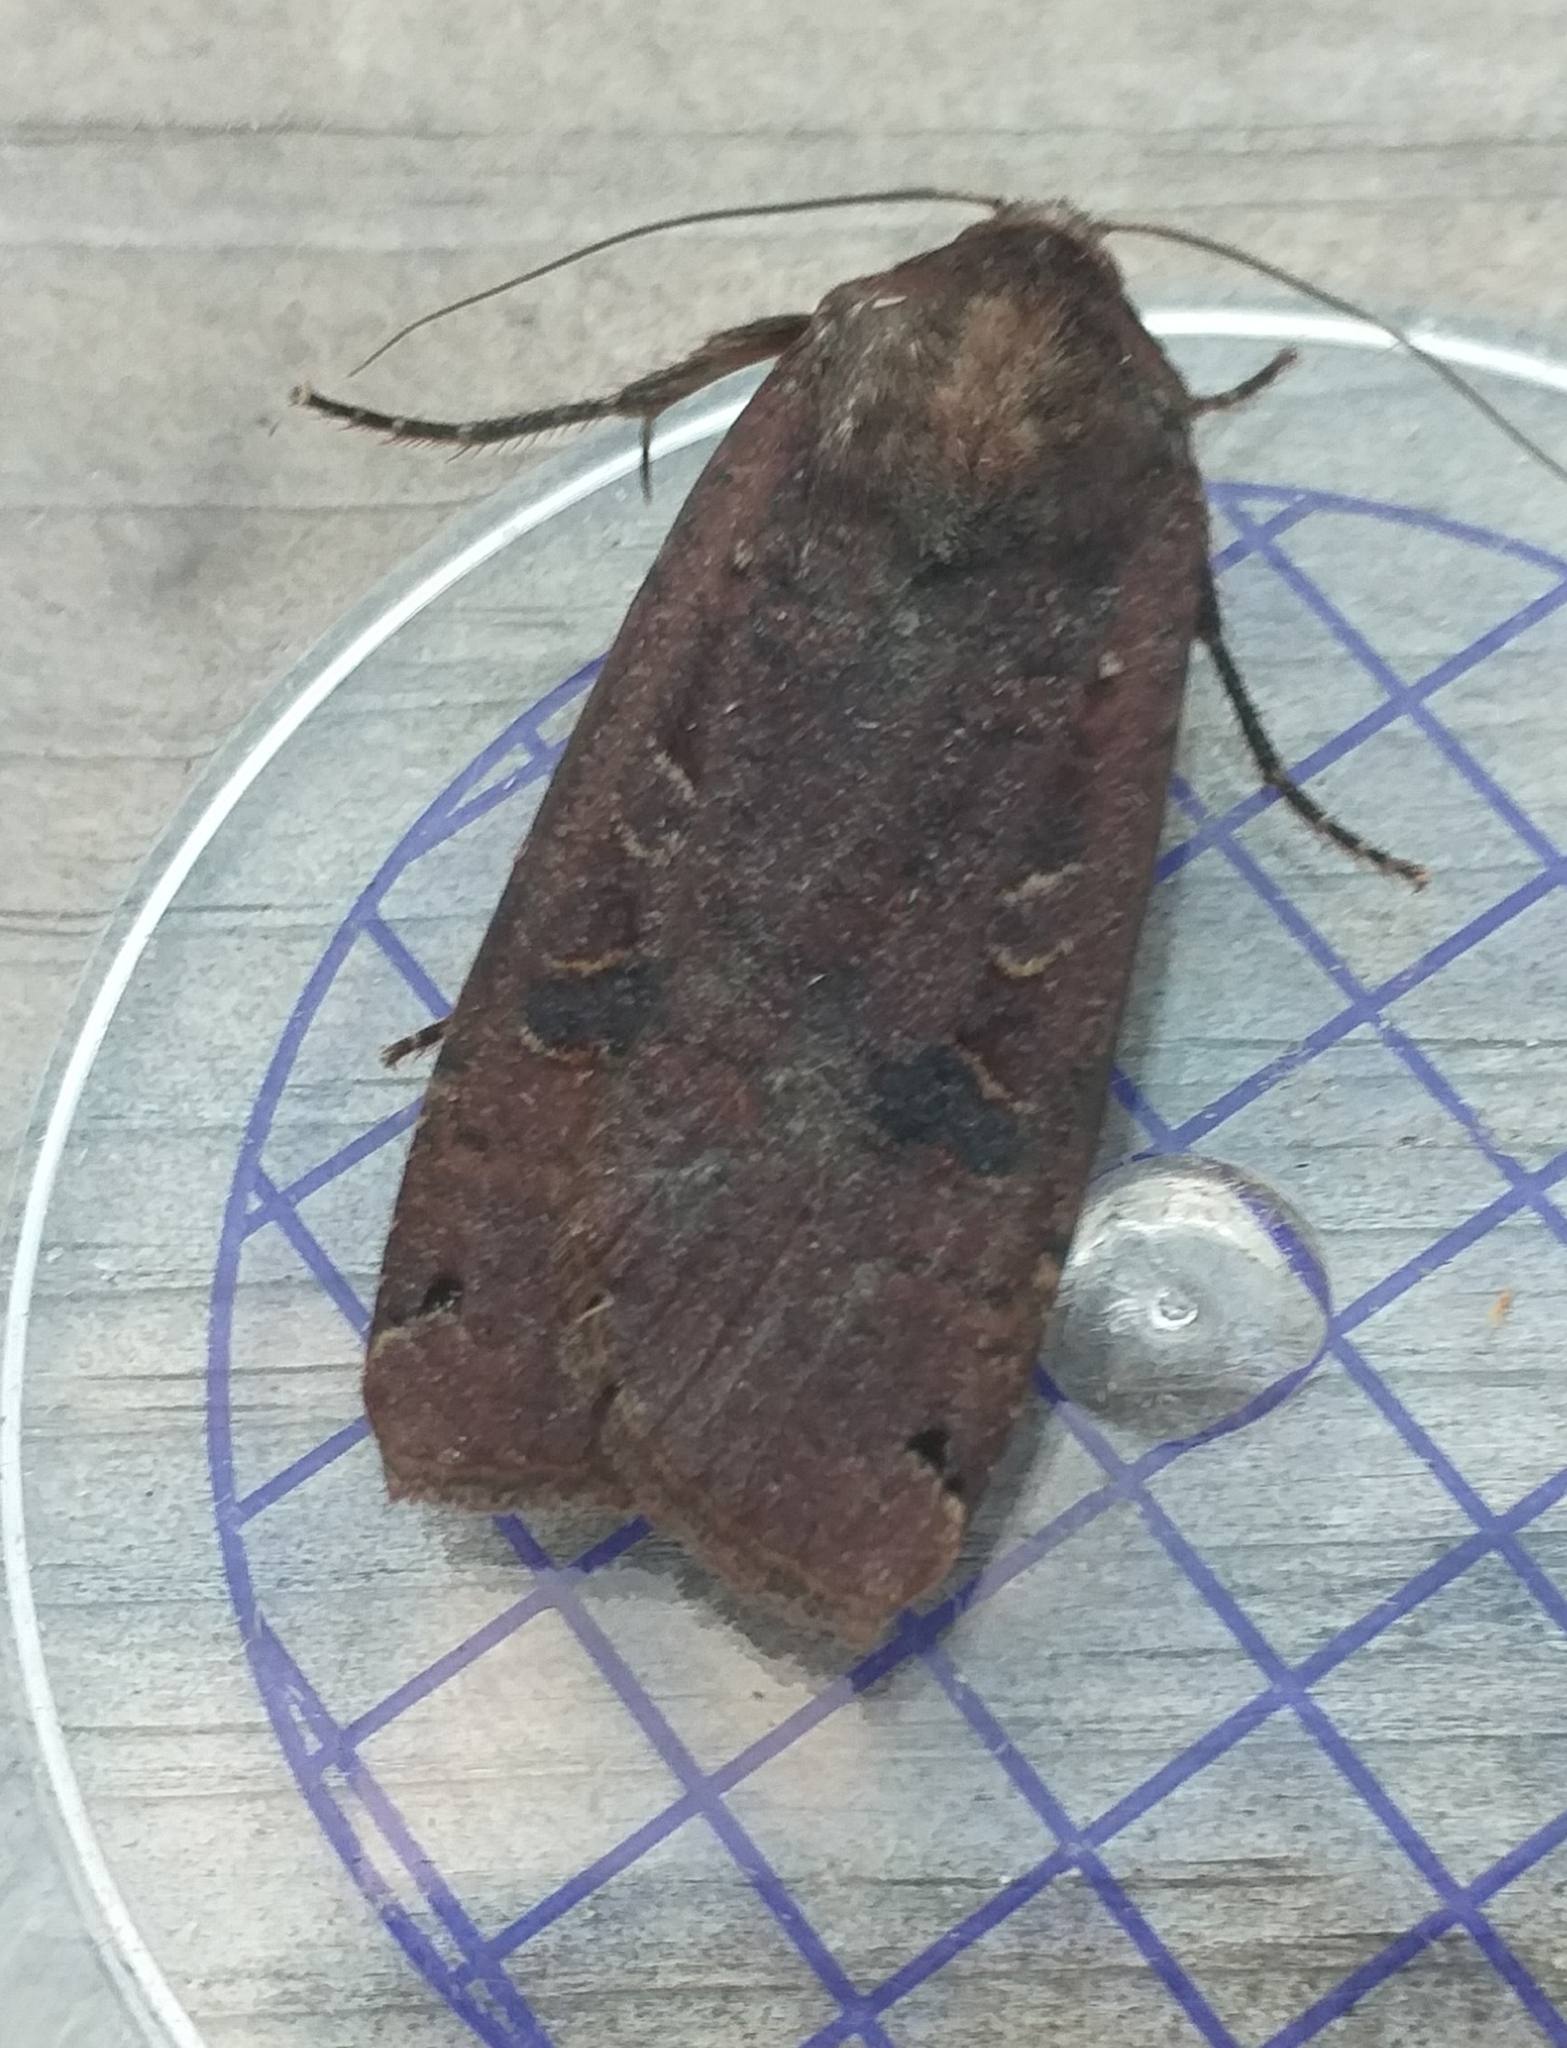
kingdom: Animalia
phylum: Arthropoda
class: Insecta
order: Lepidoptera
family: Noctuidae
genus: Noctua
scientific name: Noctua pronuba
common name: Large yellow underwing
